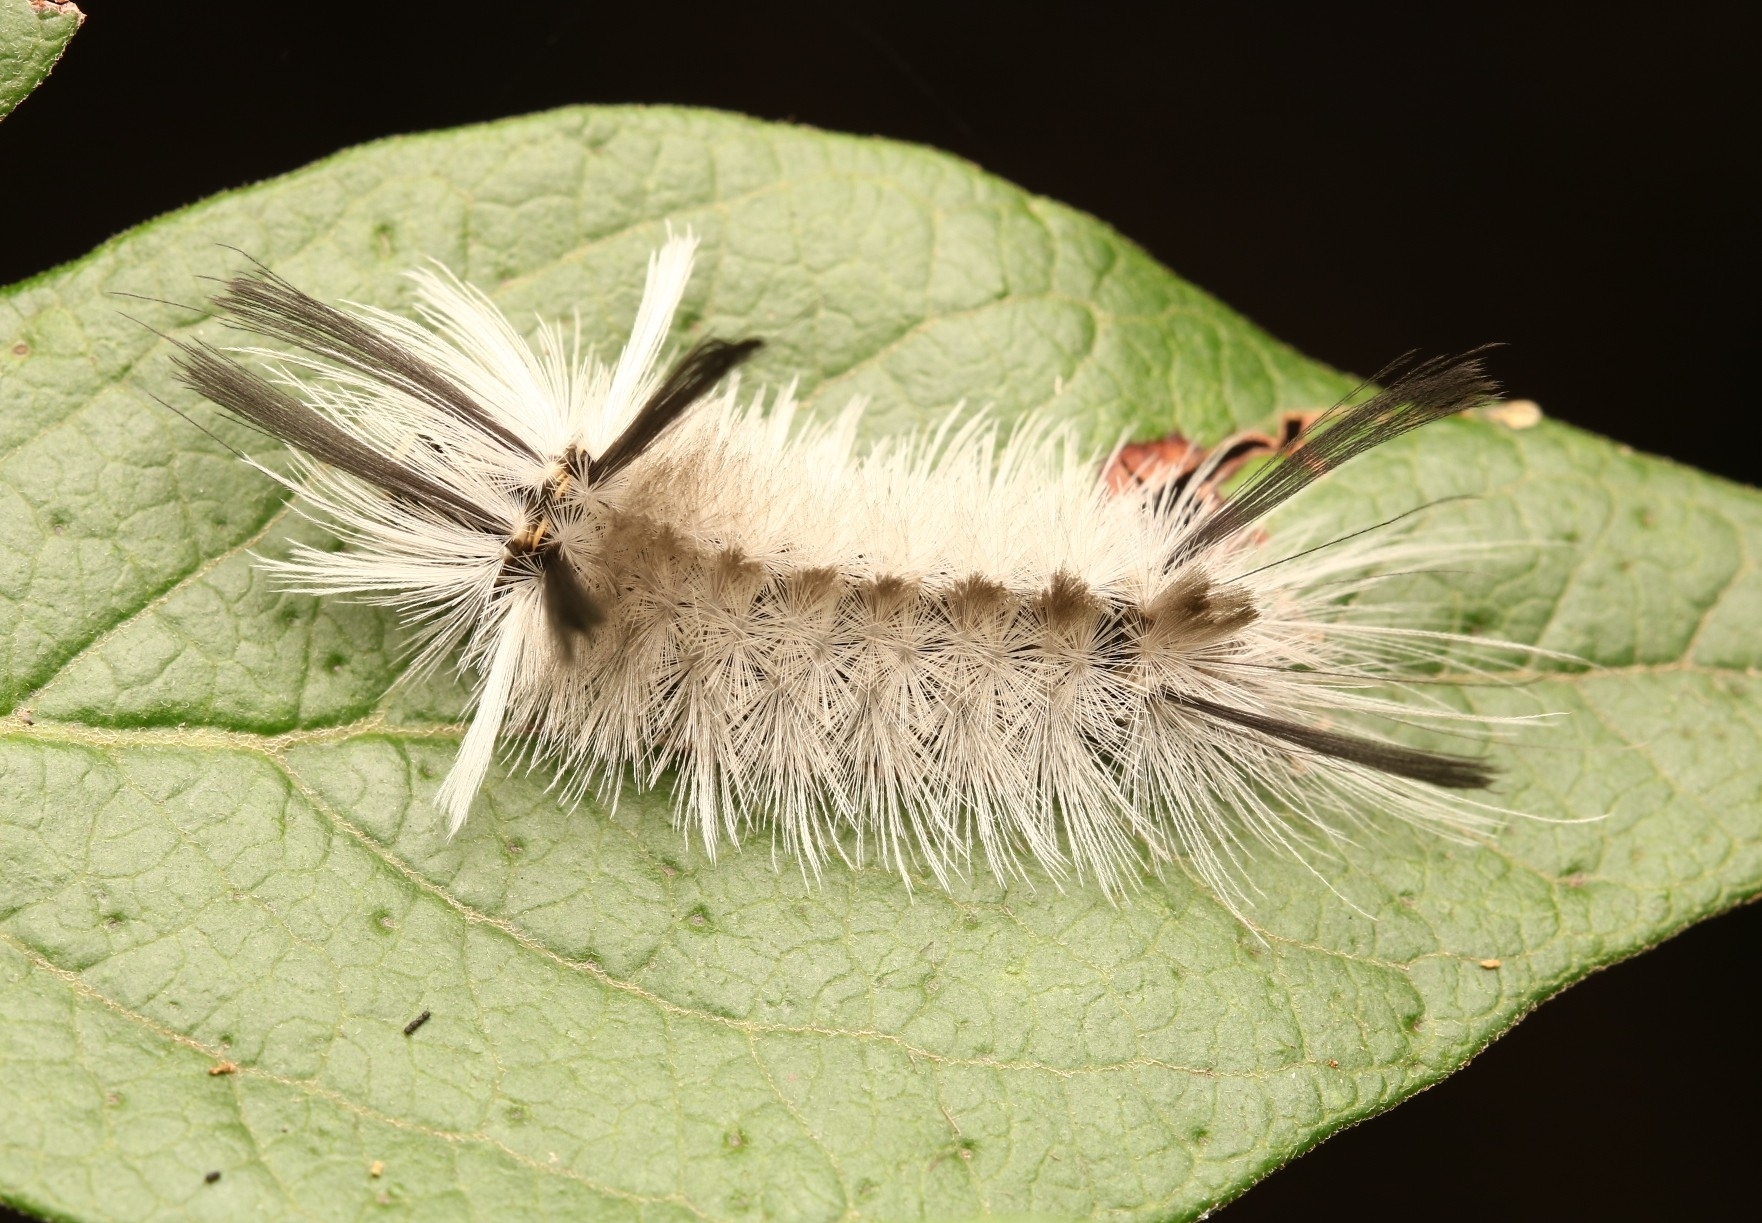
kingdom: Animalia
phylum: Arthropoda
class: Insecta
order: Lepidoptera
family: Erebidae
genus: Halysidota
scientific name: Halysidota tessellaris
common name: Banded tussock moth
